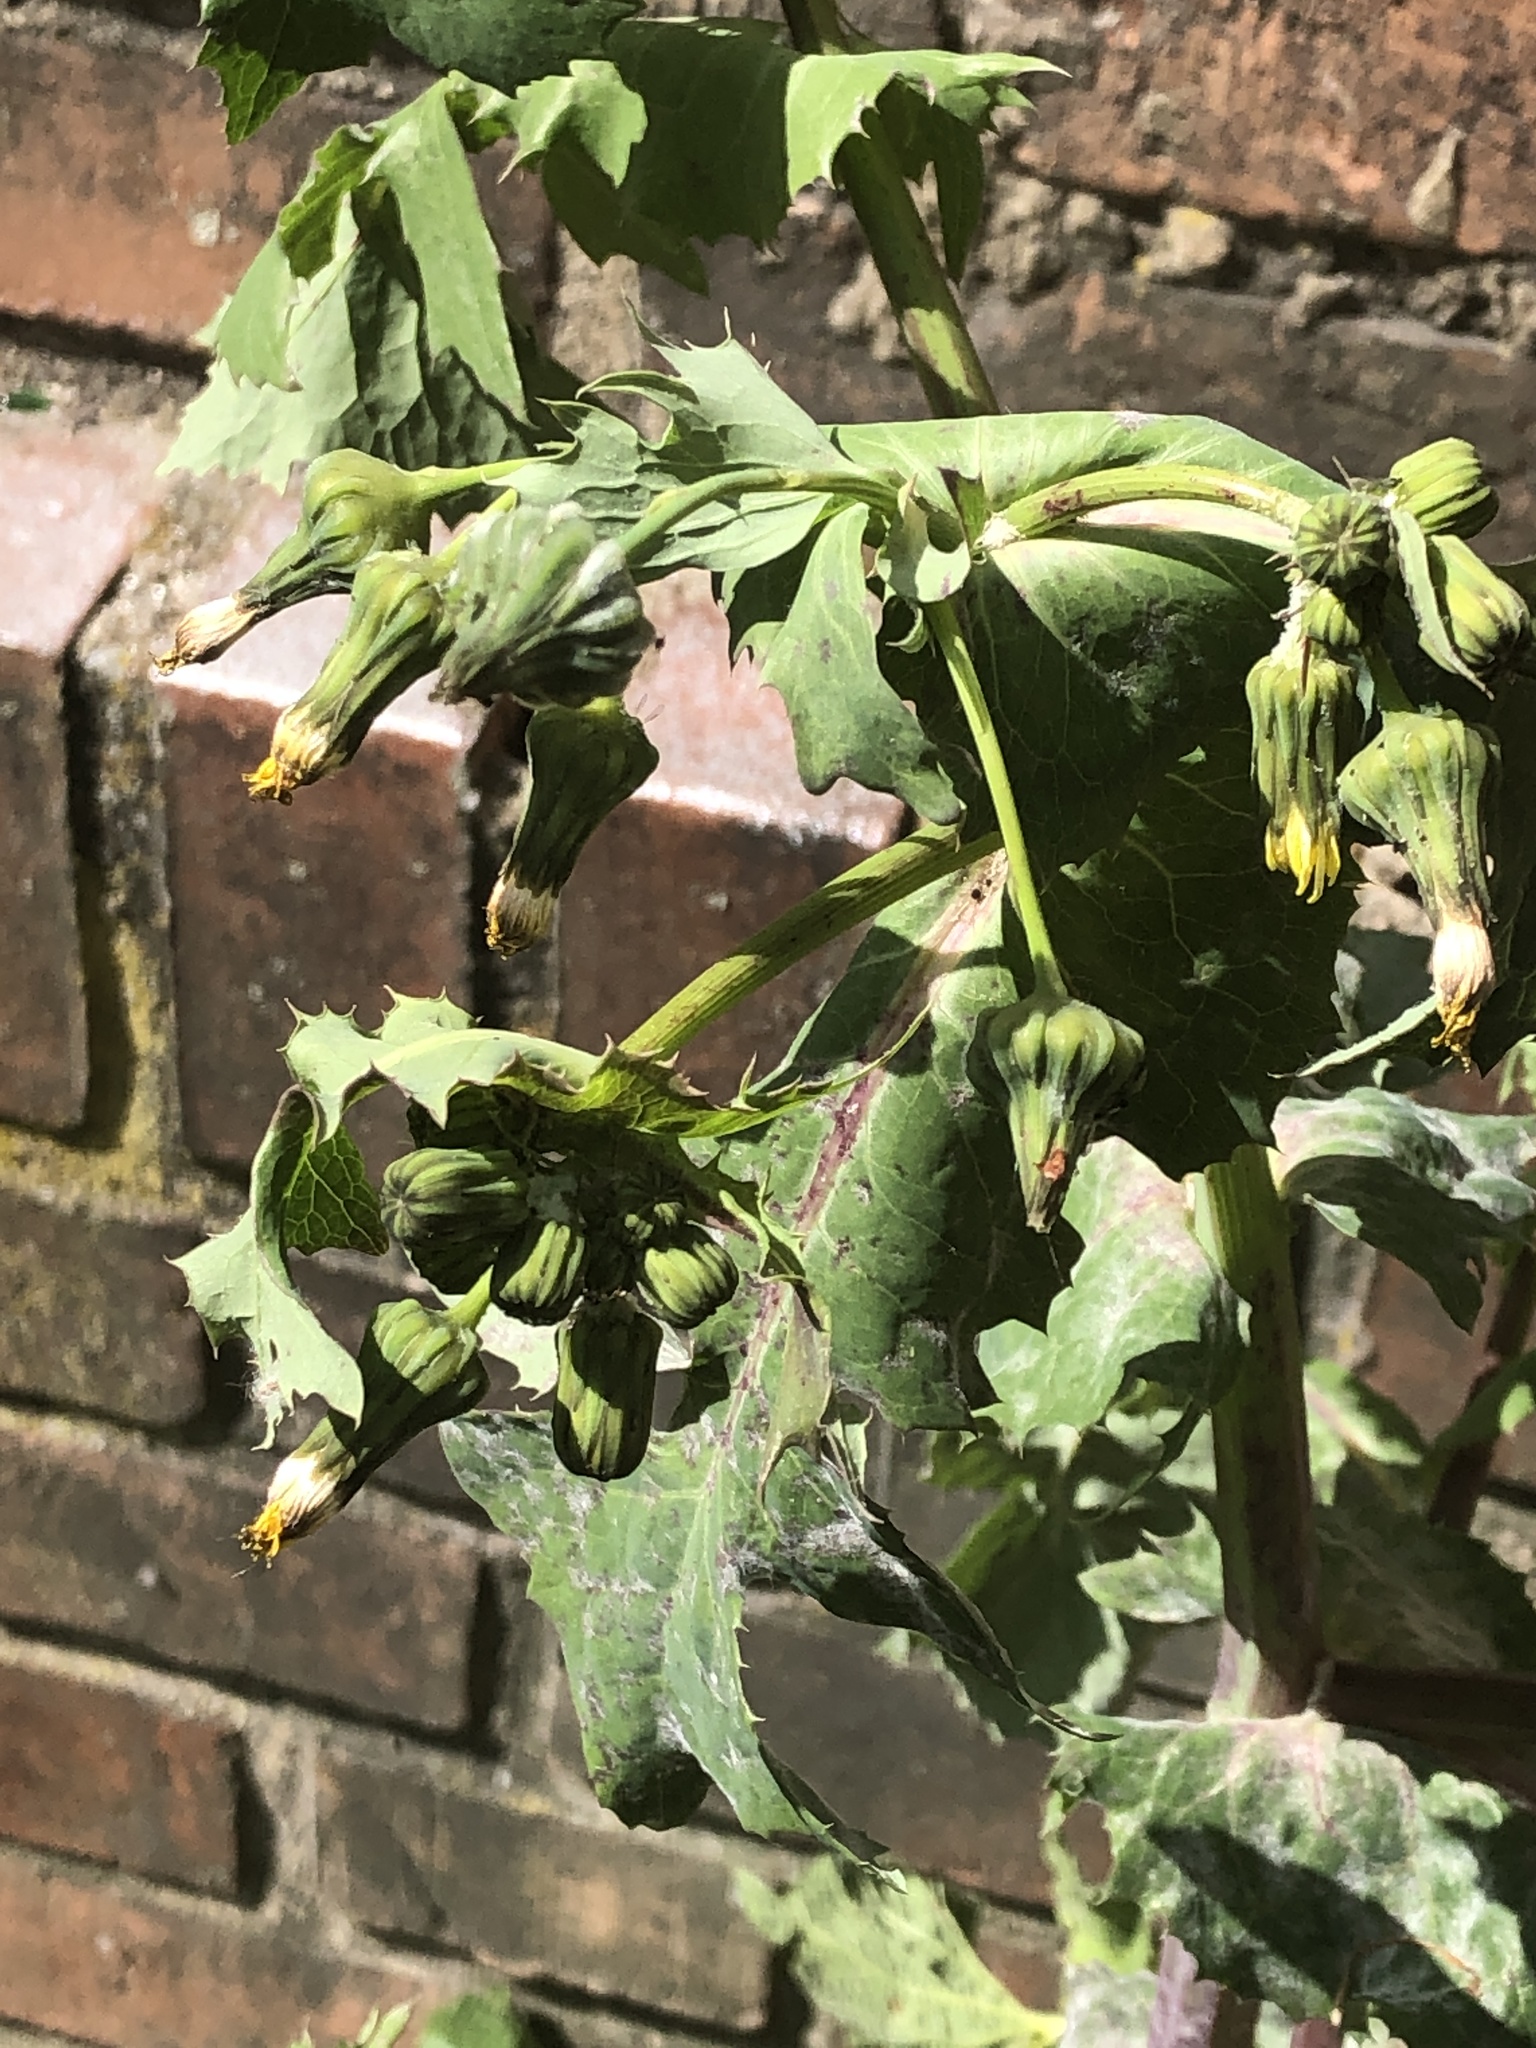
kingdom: Plantae
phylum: Tracheophyta
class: Magnoliopsida
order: Asterales
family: Asteraceae
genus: Sonchus
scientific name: Sonchus oleraceus
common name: Common sowthistle
